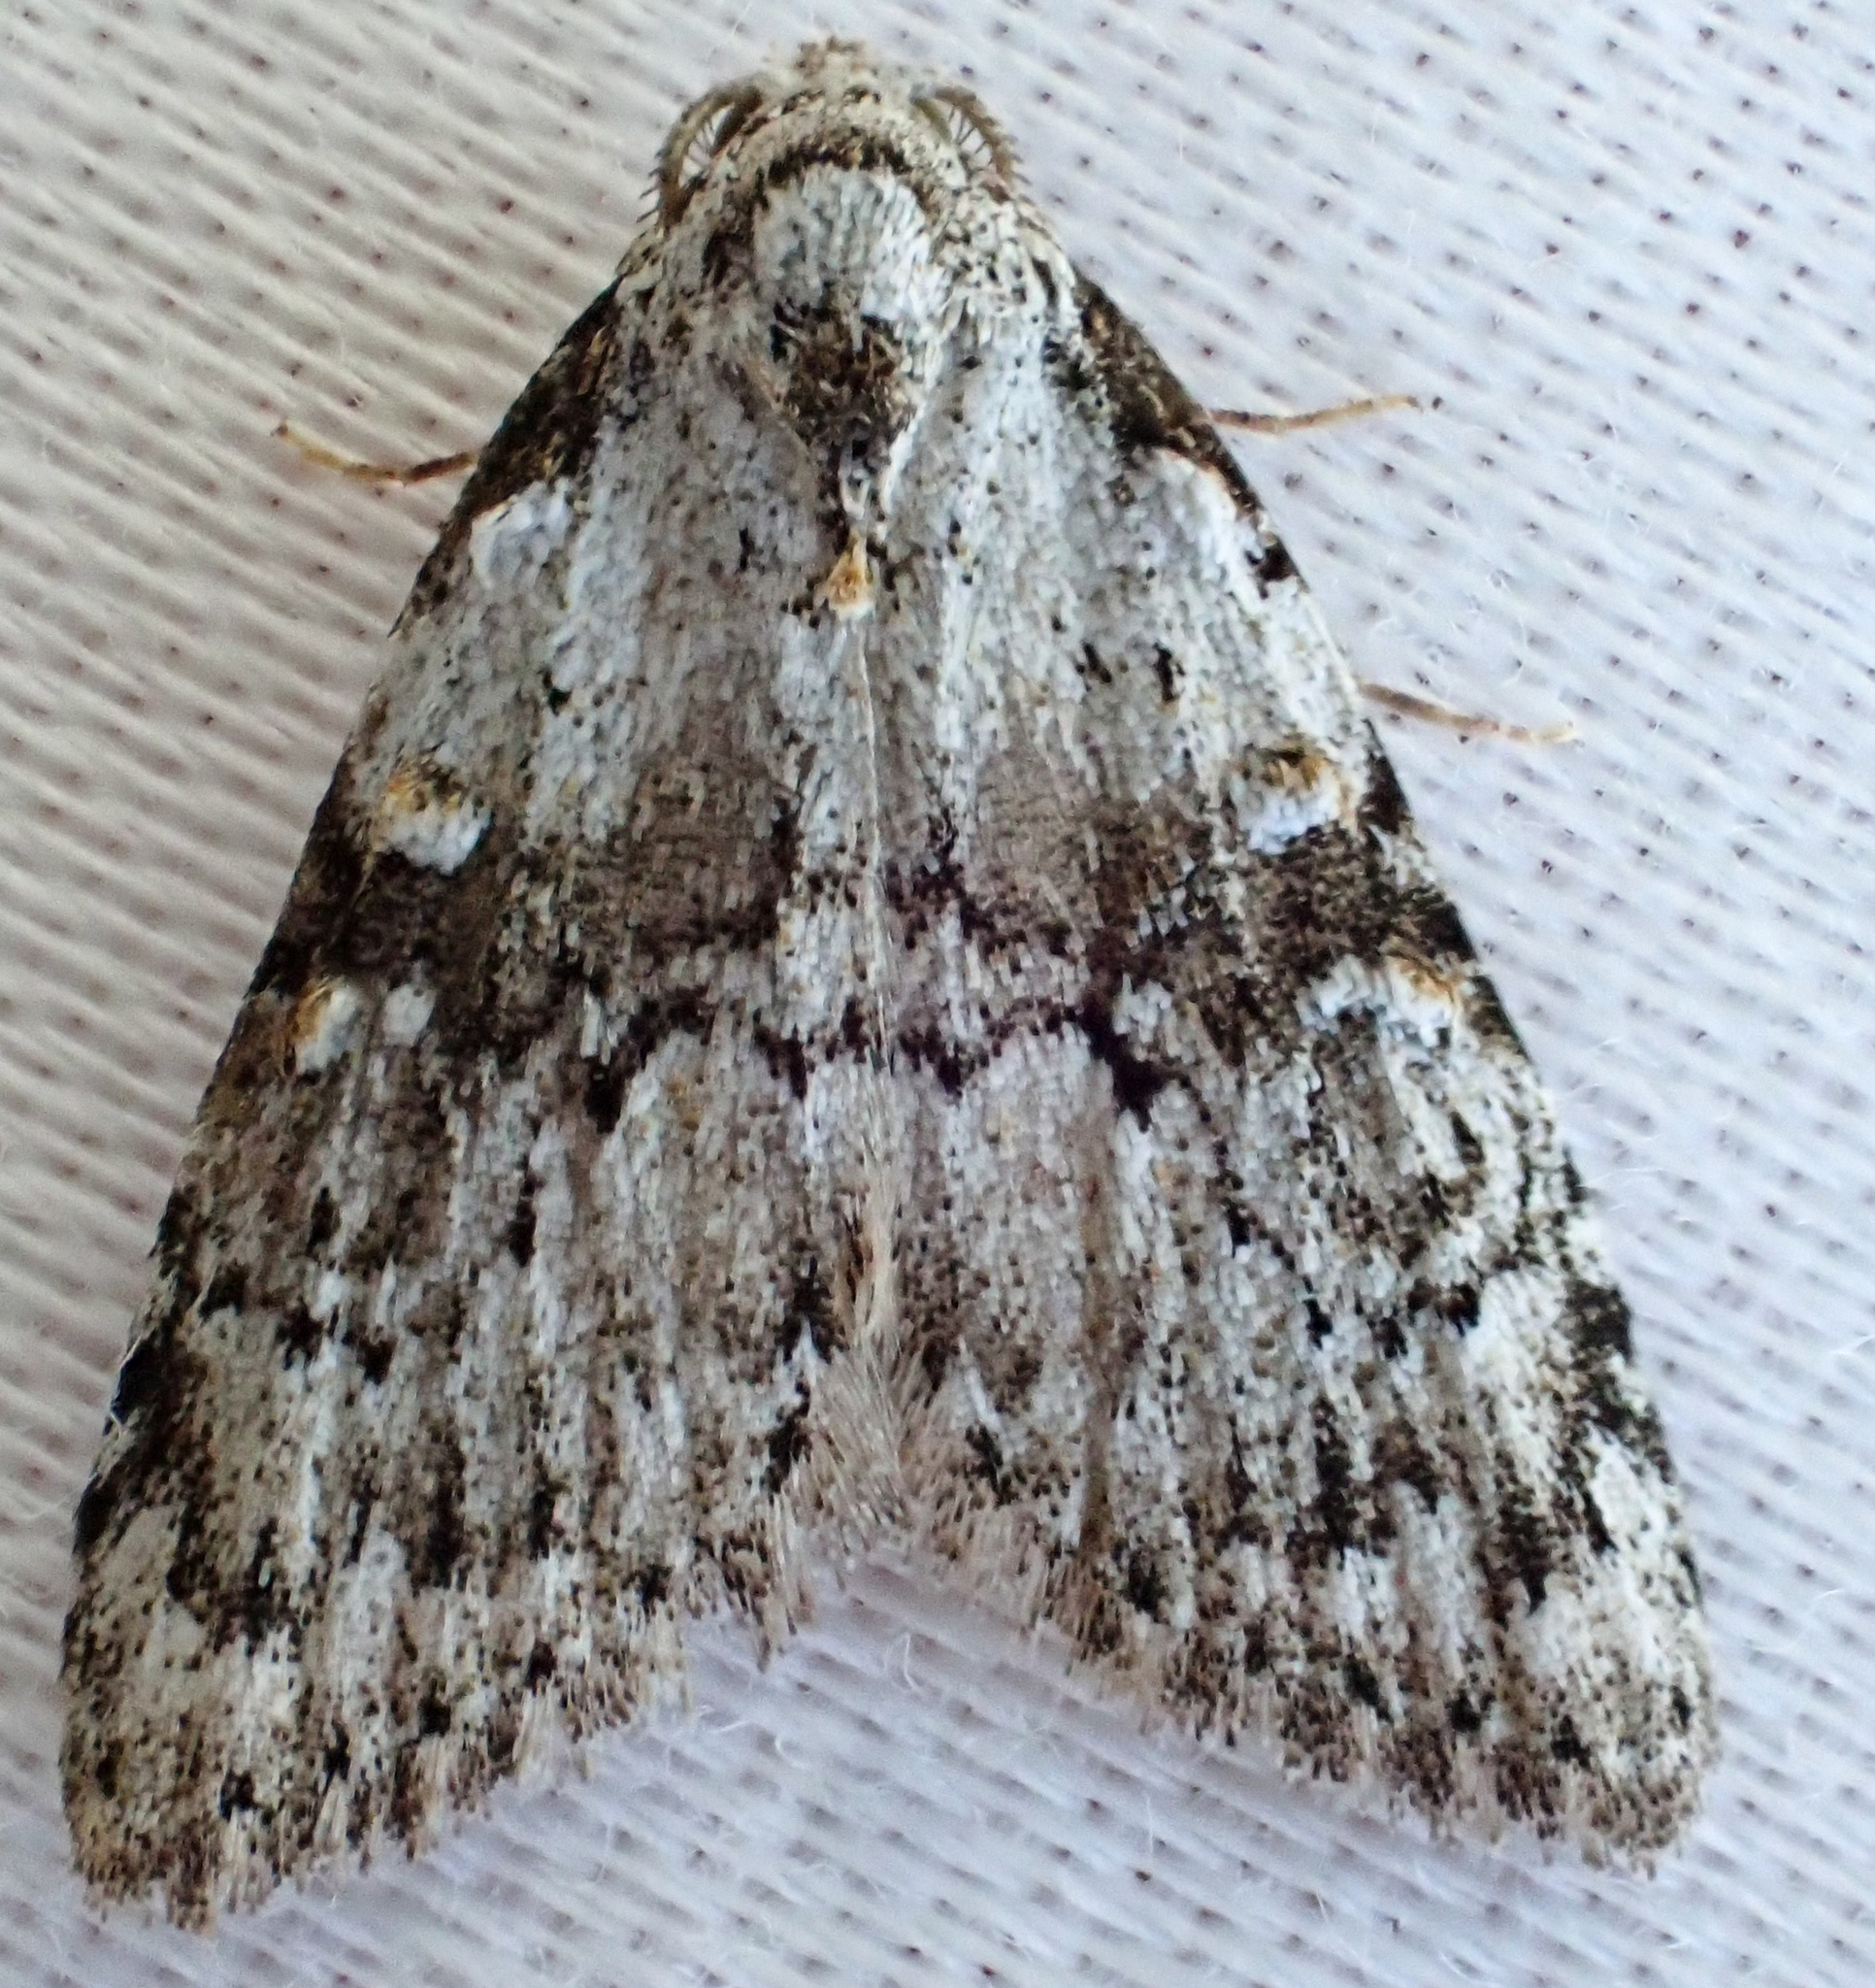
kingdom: Animalia
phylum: Arthropoda
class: Insecta
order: Lepidoptera
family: Nolidae
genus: Meganola
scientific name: Meganola minuscula
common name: Confused meganola moth
